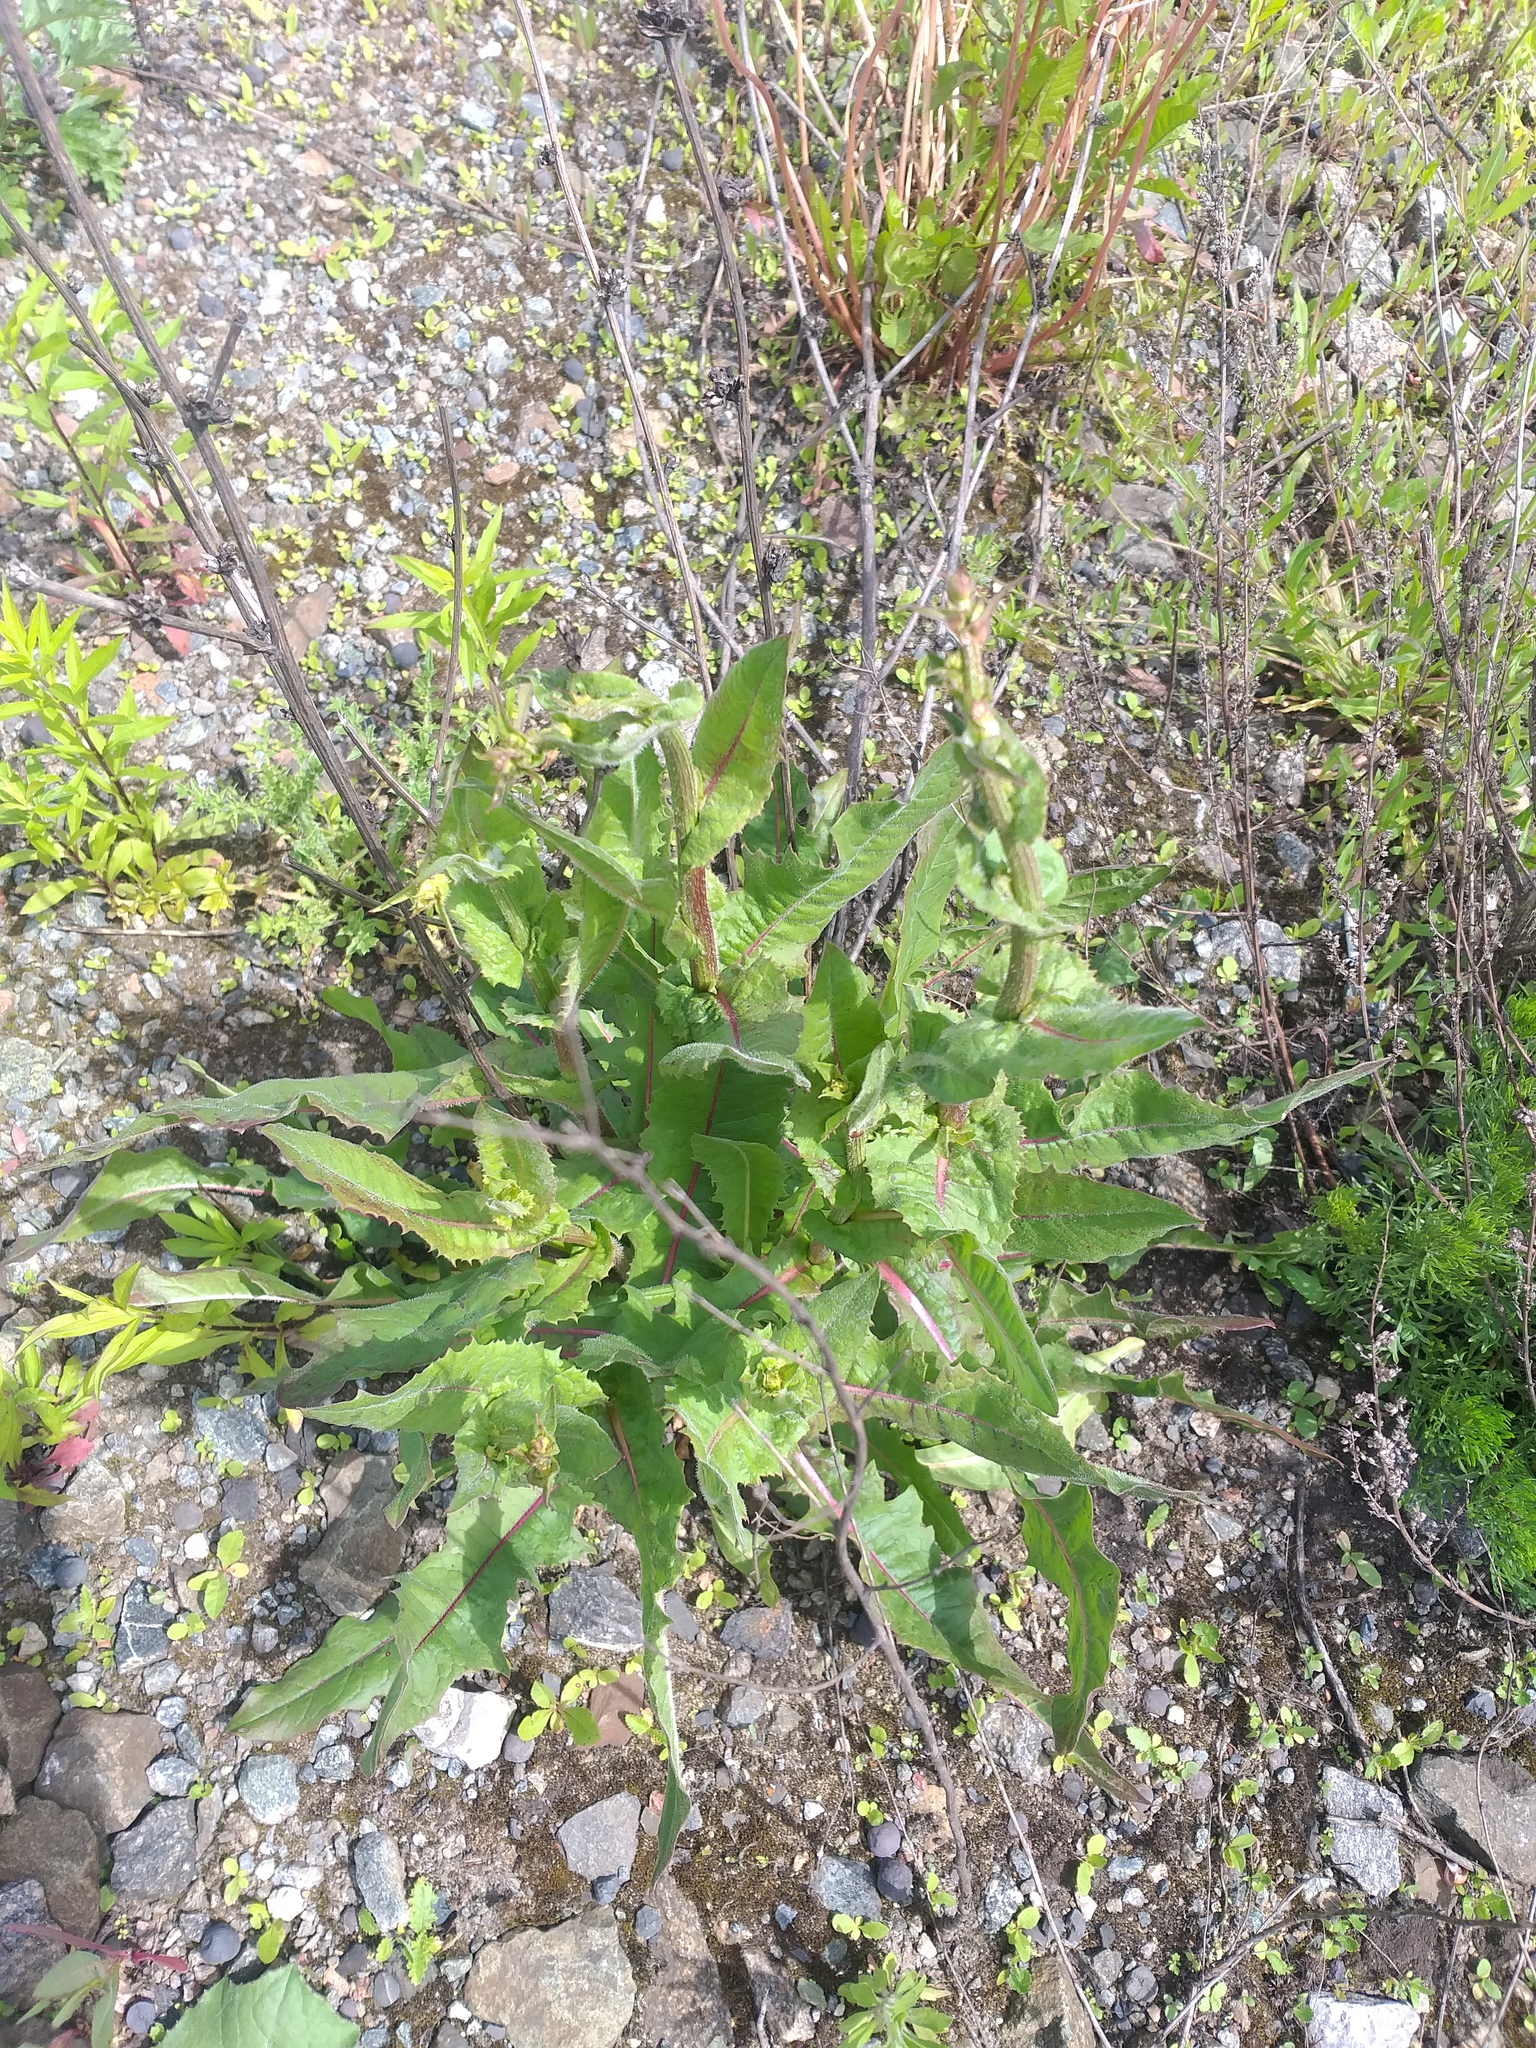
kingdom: Plantae
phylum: Tracheophyta
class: Magnoliopsida
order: Asterales
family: Asteraceae
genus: Cichorium
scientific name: Cichorium intybus
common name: Chicory
